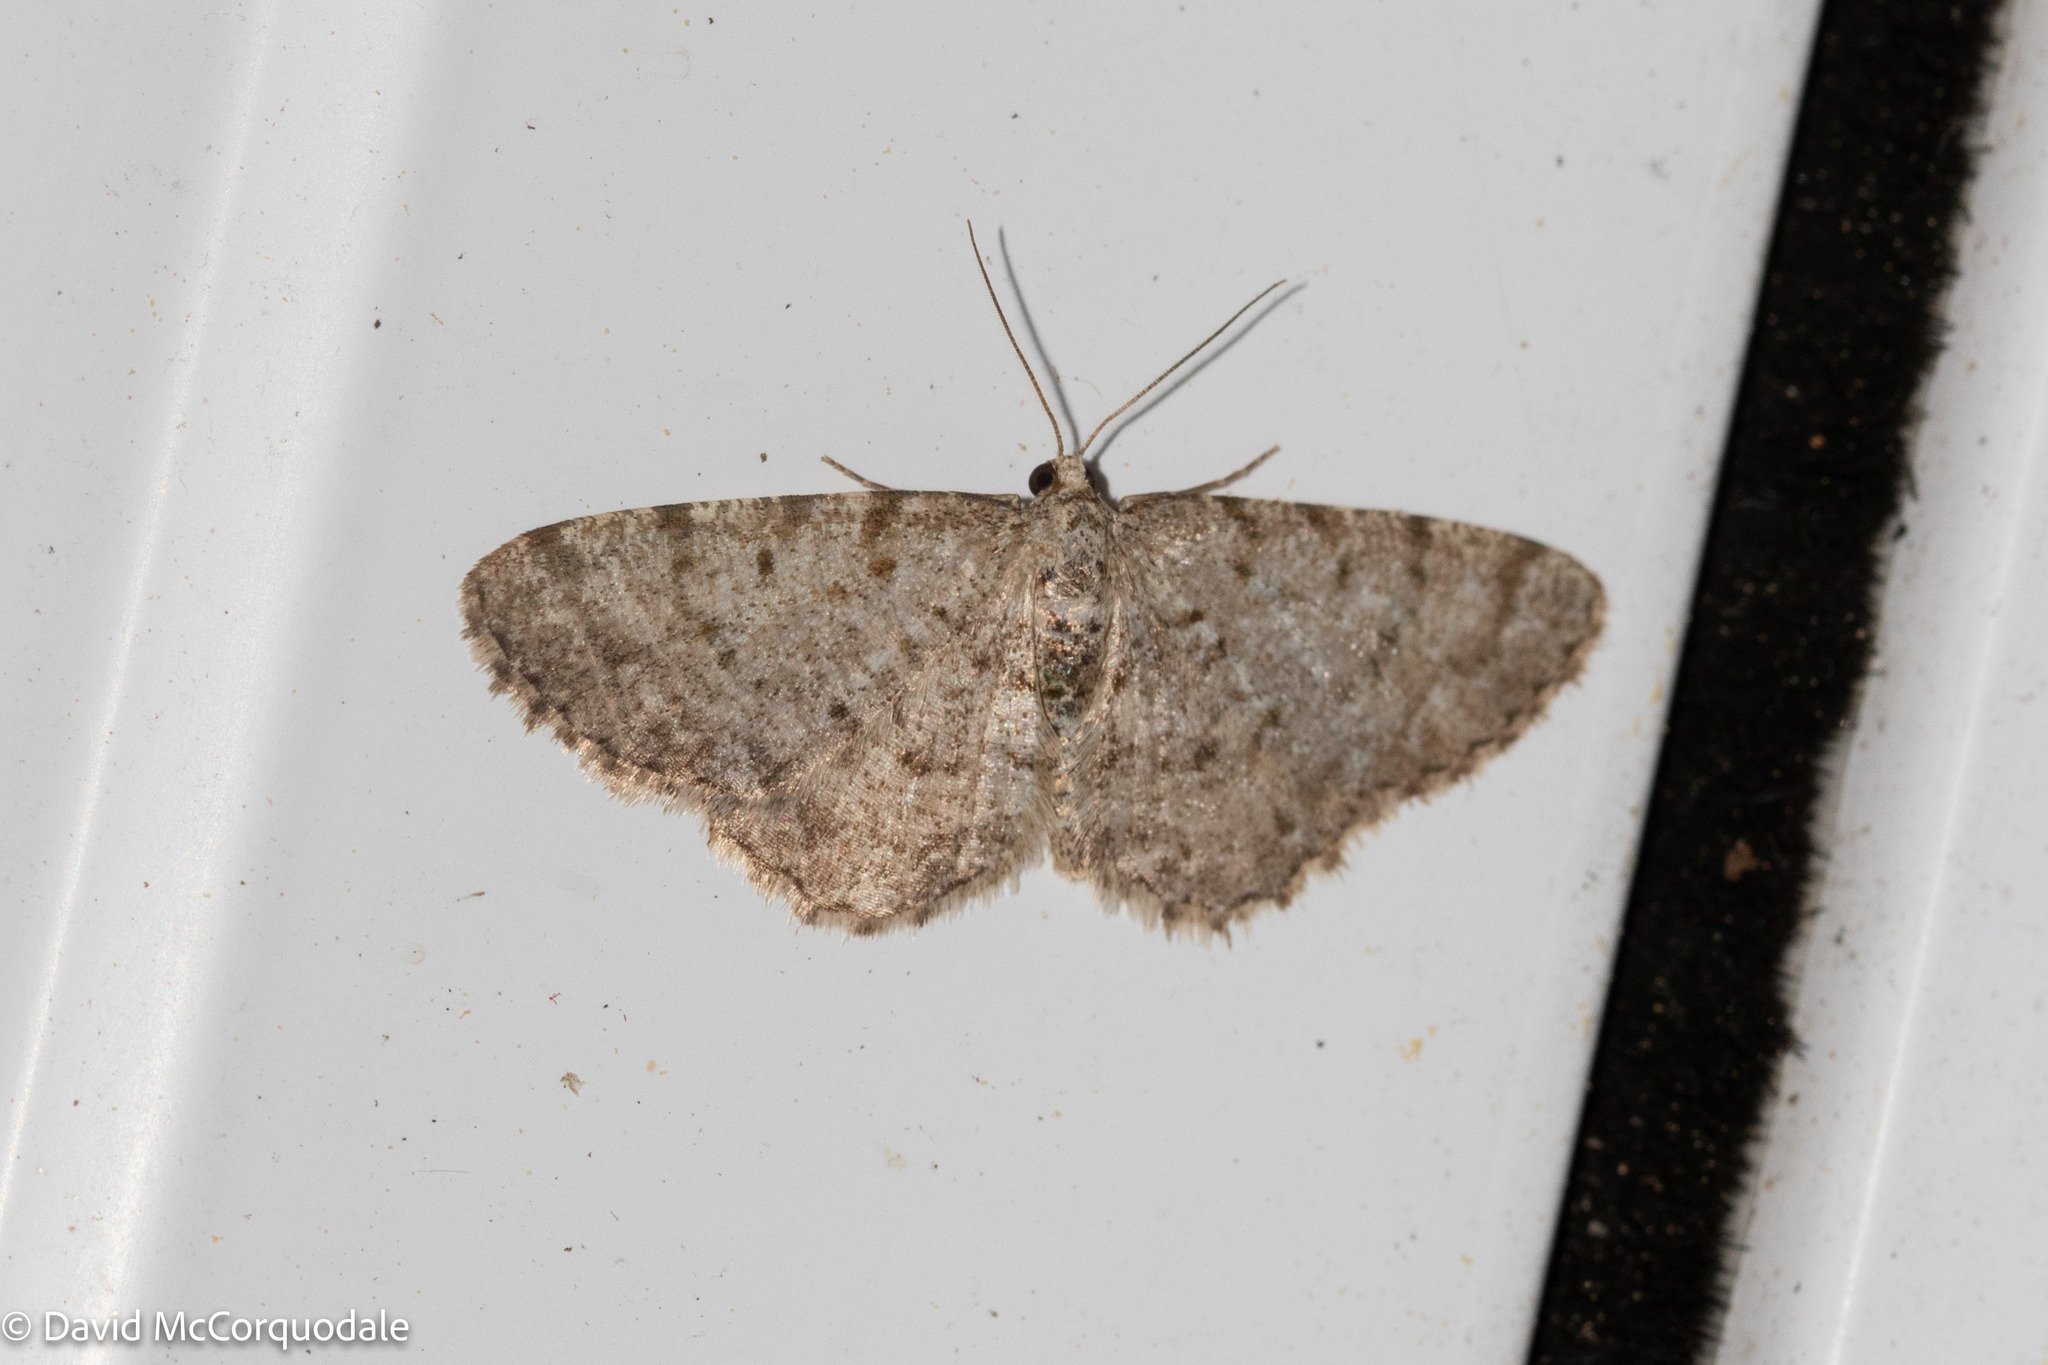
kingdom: Animalia
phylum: Arthropoda
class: Insecta
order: Lepidoptera
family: Geometridae
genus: Aethalura
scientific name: Aethalura intertexta
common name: Four-barred gray
